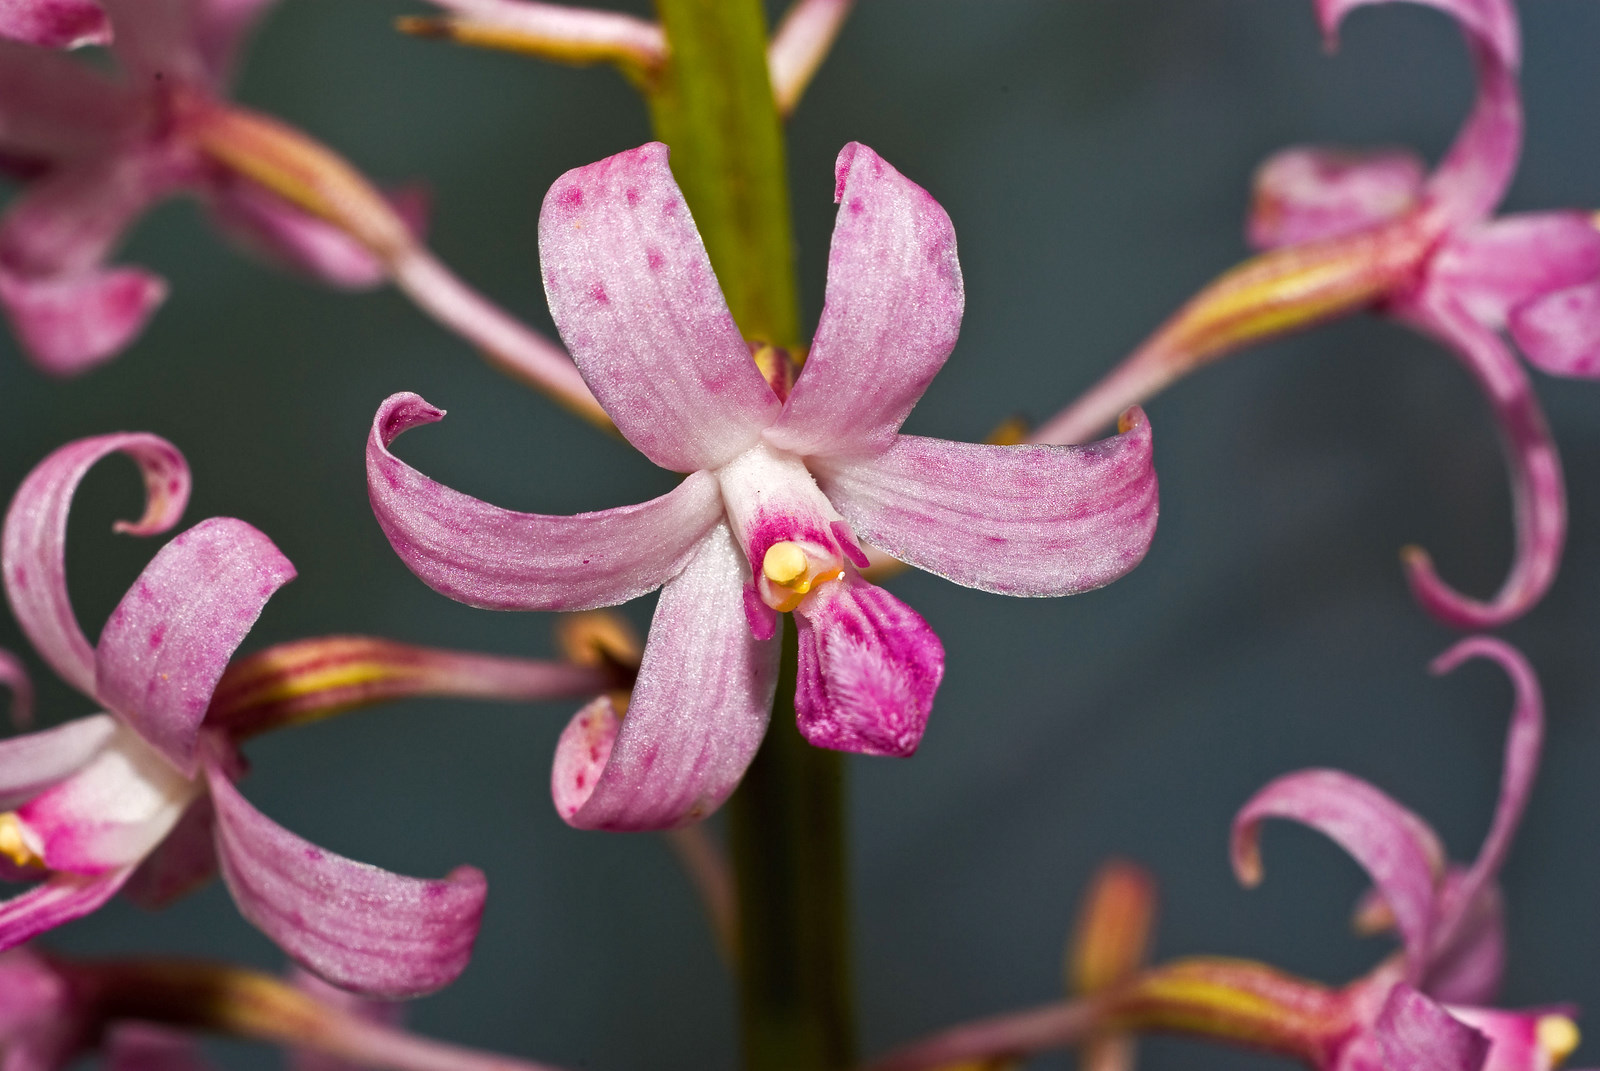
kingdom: Plantae
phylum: Tracheophyta
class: Liliopsida
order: Asparagales
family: Orchidaceae
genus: Dipodium
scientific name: Dipodium roseum
